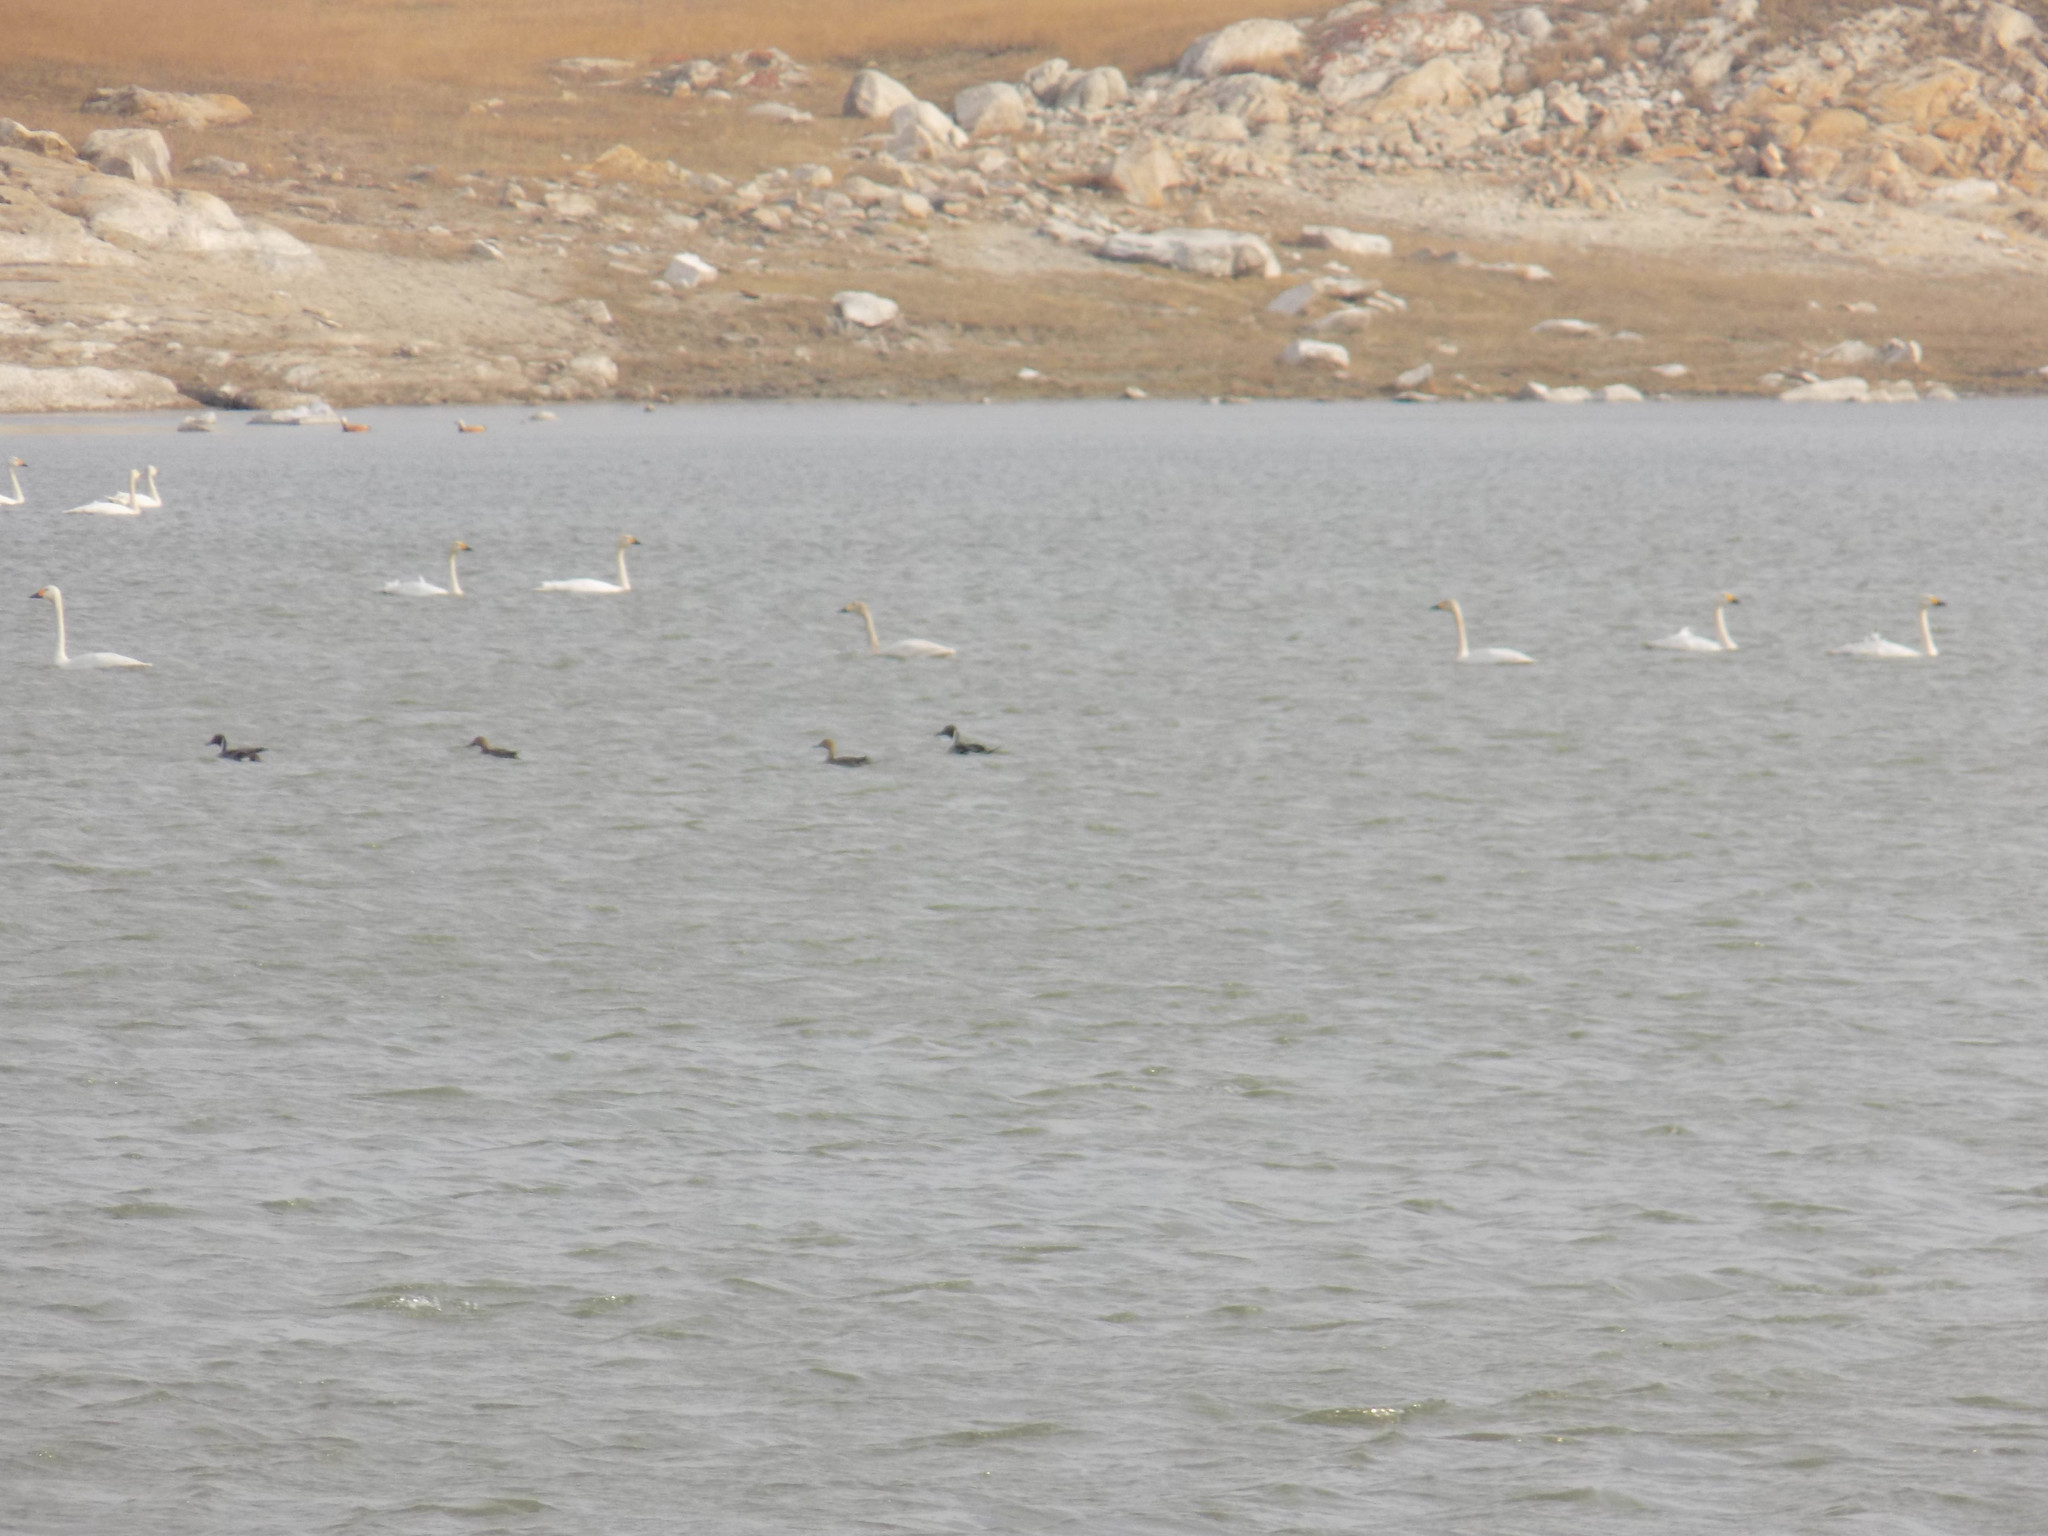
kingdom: Animalia
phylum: Chordata
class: Aves
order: Anseriformes
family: Anatidae
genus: Anas
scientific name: Anas acuta
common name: Northern pintail
